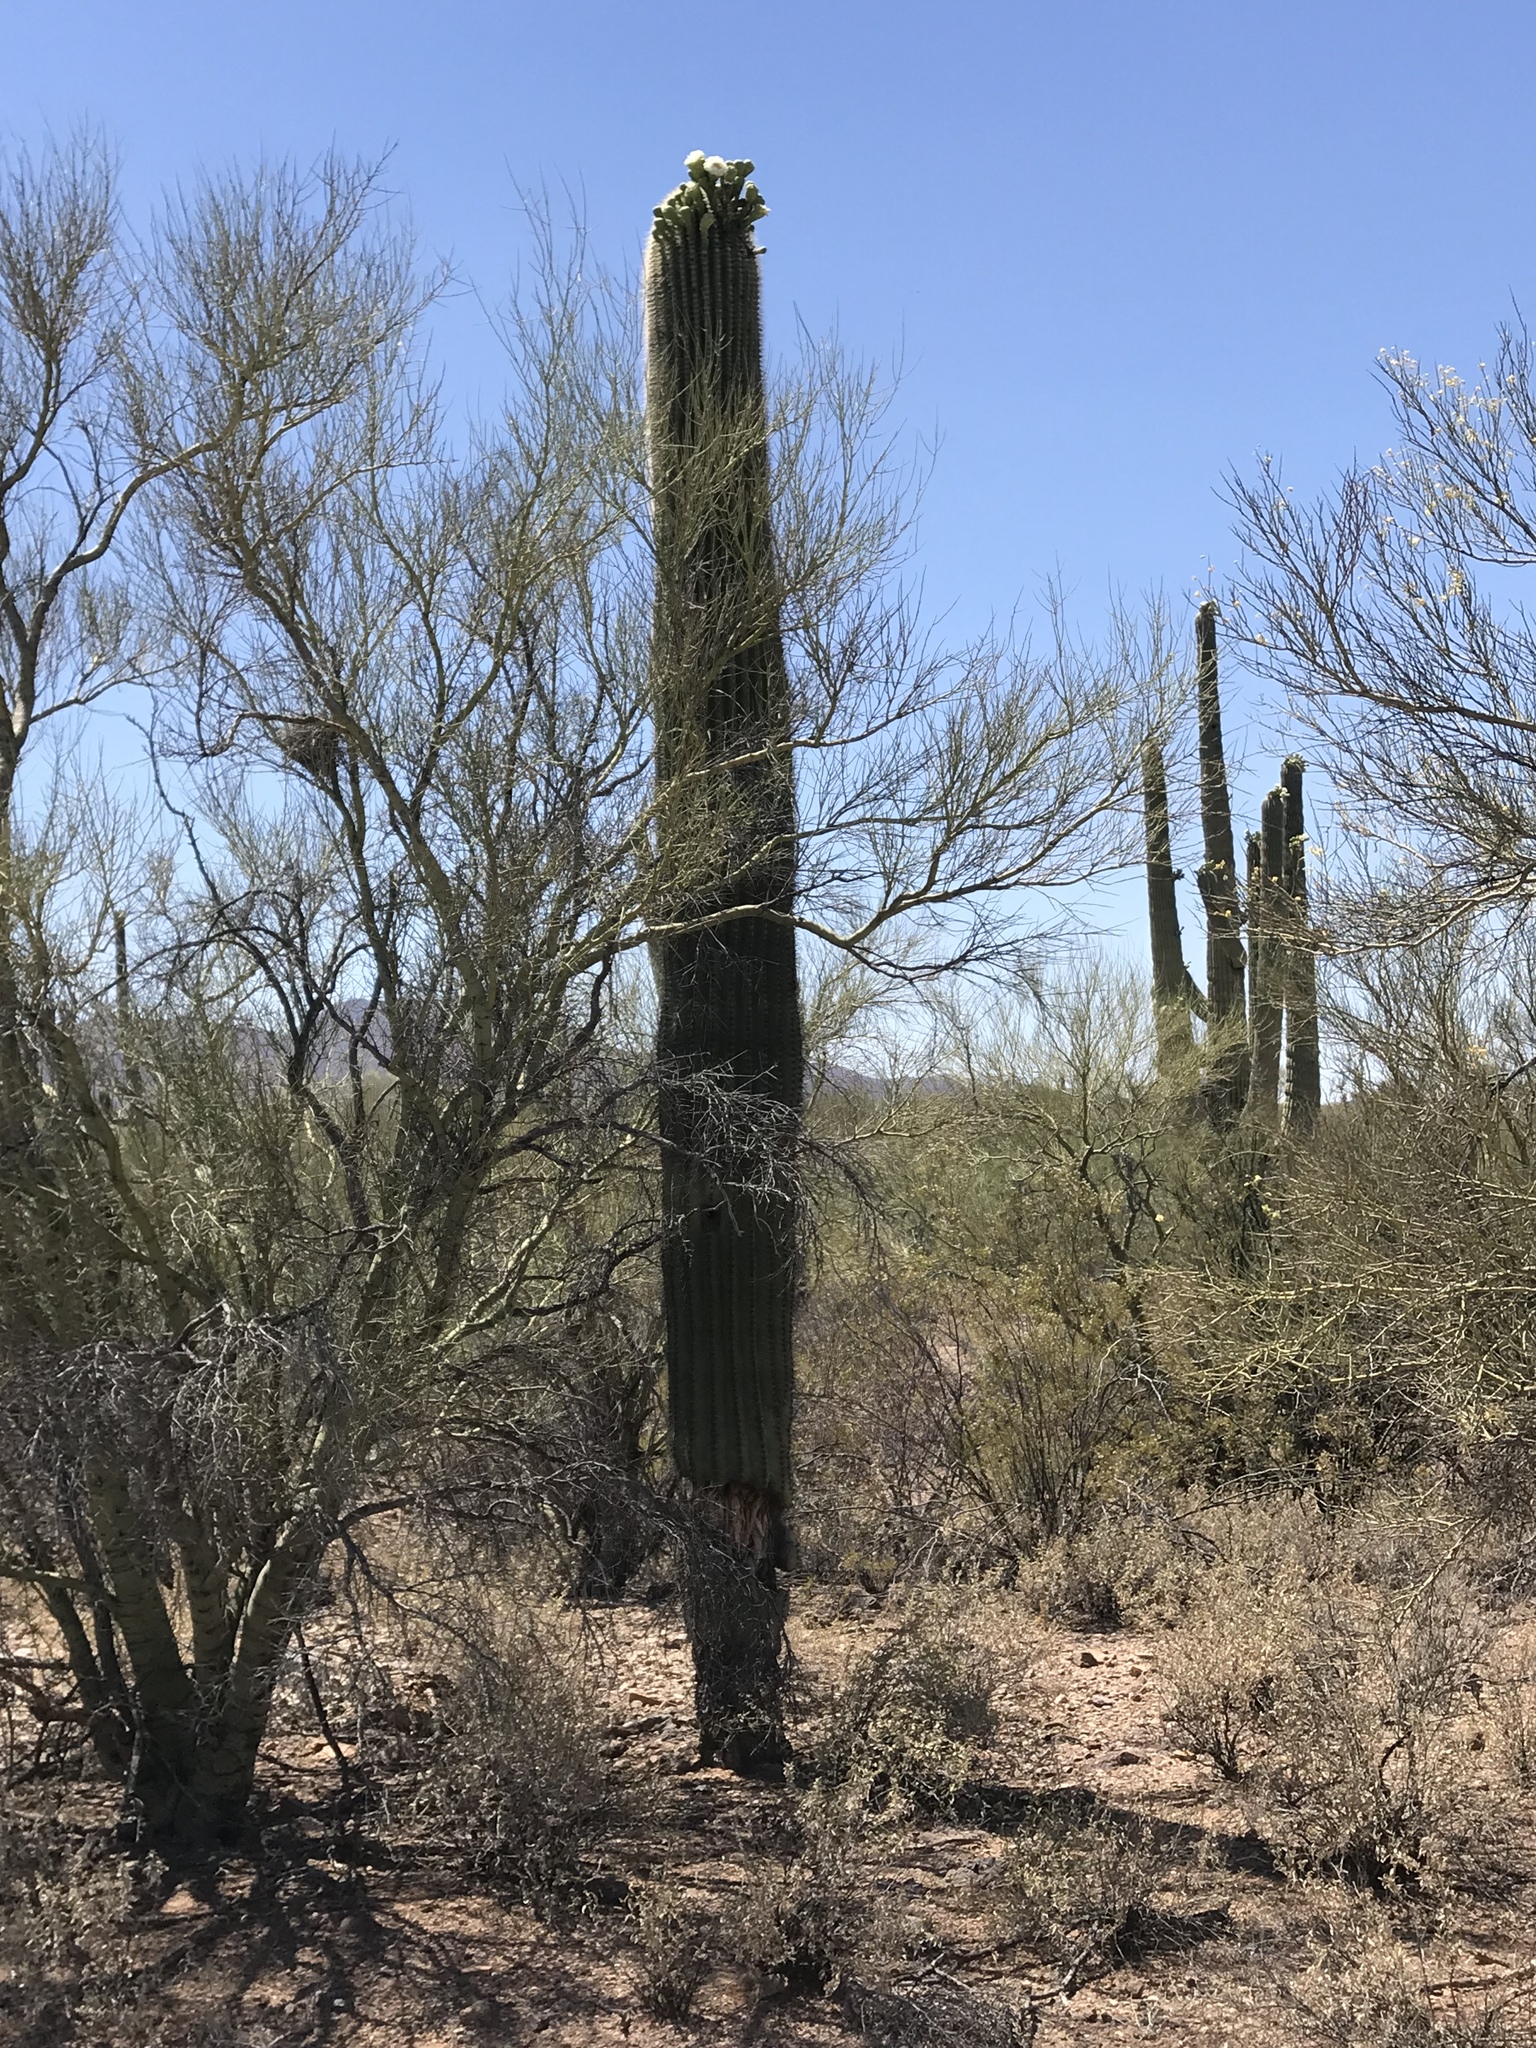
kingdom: Plantae
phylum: Tracheophyta
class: Magnoliopsida
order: Caryophyllales
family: Cactaceae
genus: Carnegiea
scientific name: Carnegiea gigantea
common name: Saguaro
